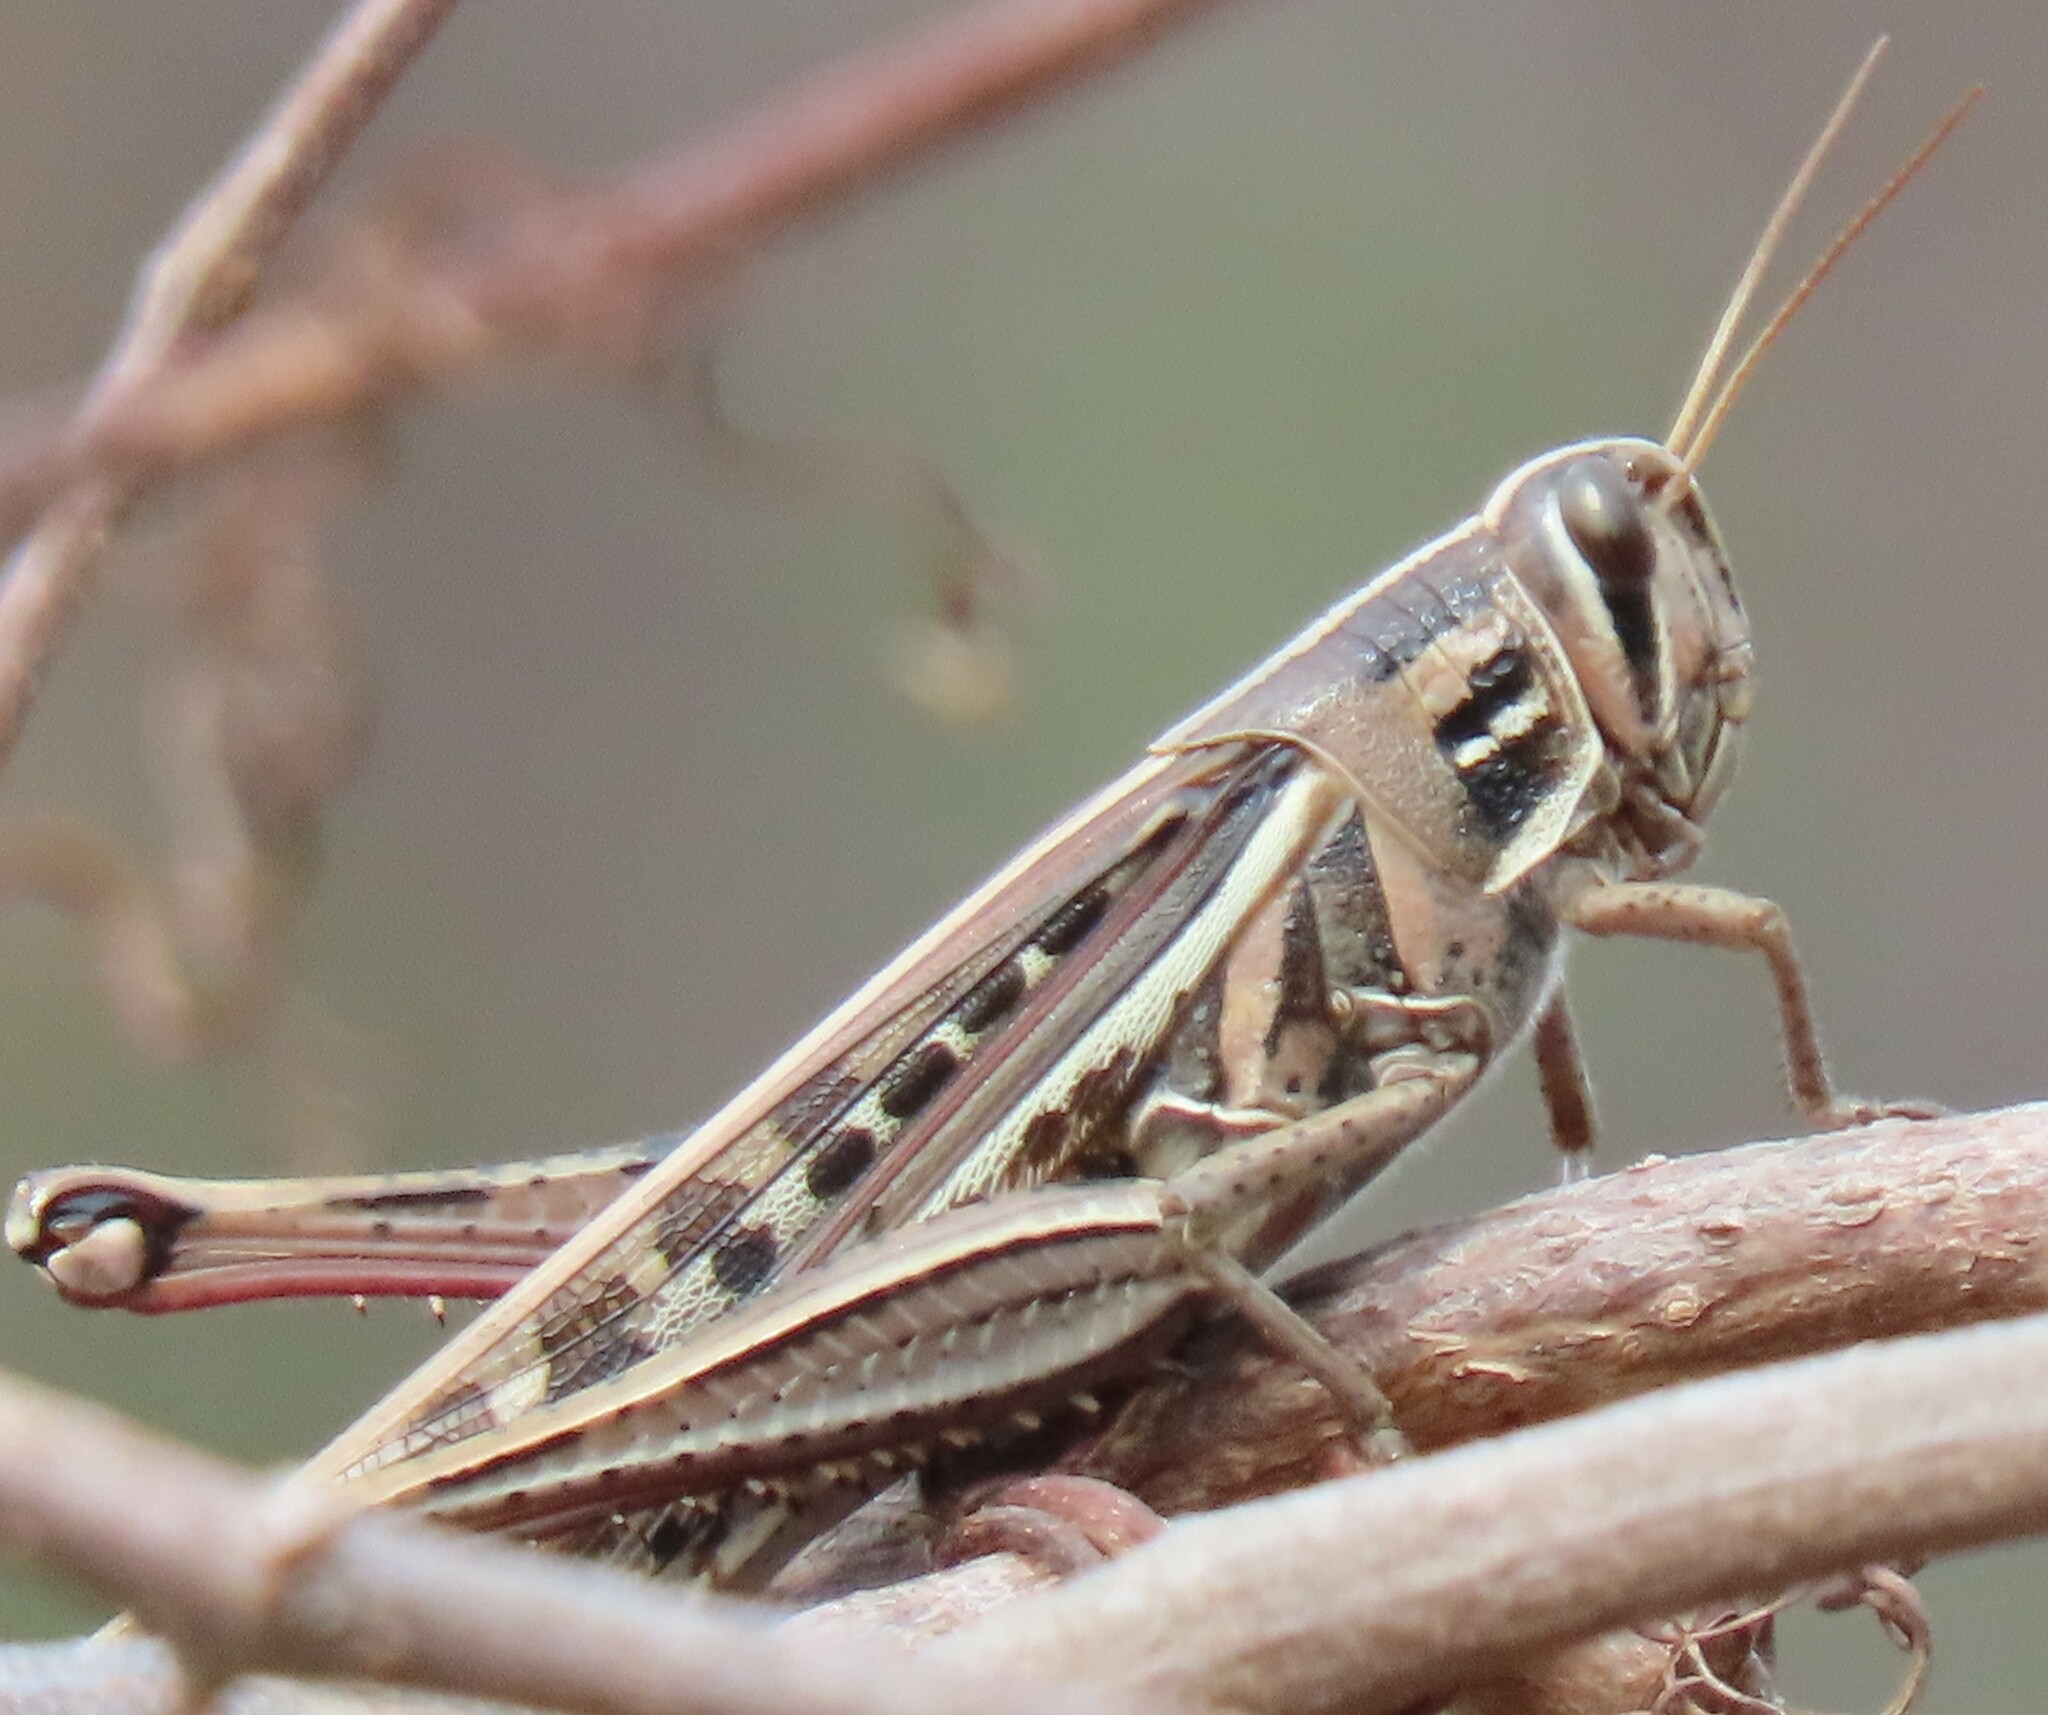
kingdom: Animalia
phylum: Arthropoda
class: Insecta
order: Orthoptera
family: Acrididae
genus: Schistocerca
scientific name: Schistocerca americana
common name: American bird locust
